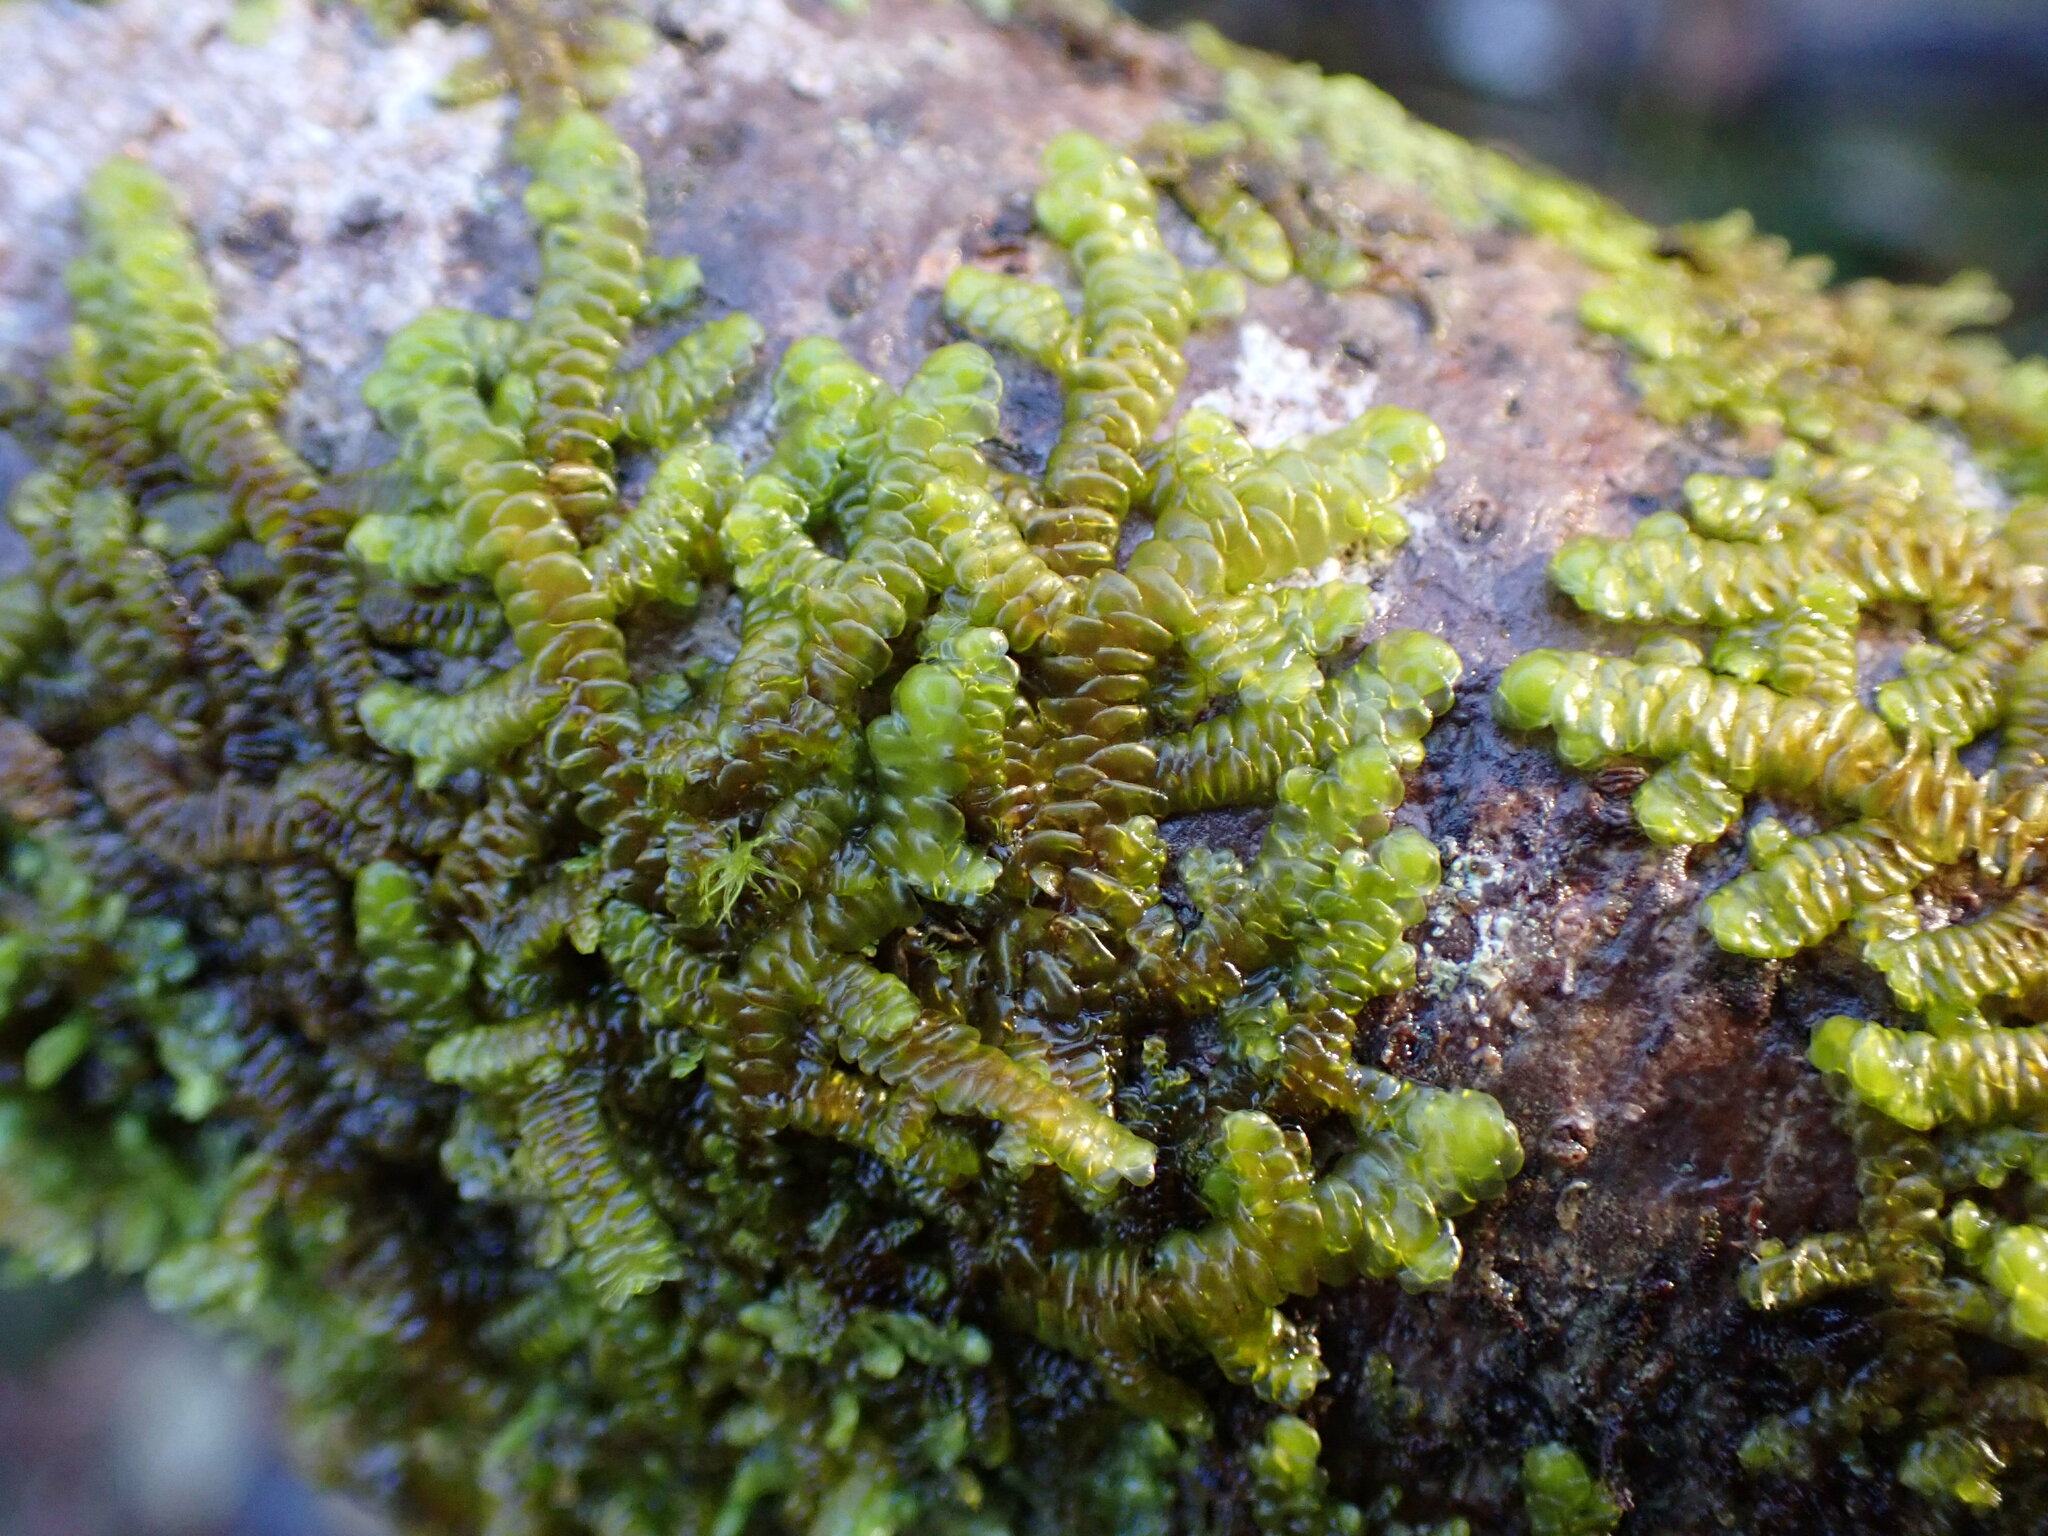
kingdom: Plantae
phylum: Marchantiophyta
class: Jungermanniopsida
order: Porellales
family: Porellaceae
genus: Porella
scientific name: Porella navicularis
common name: Tree ruffle liverwort
